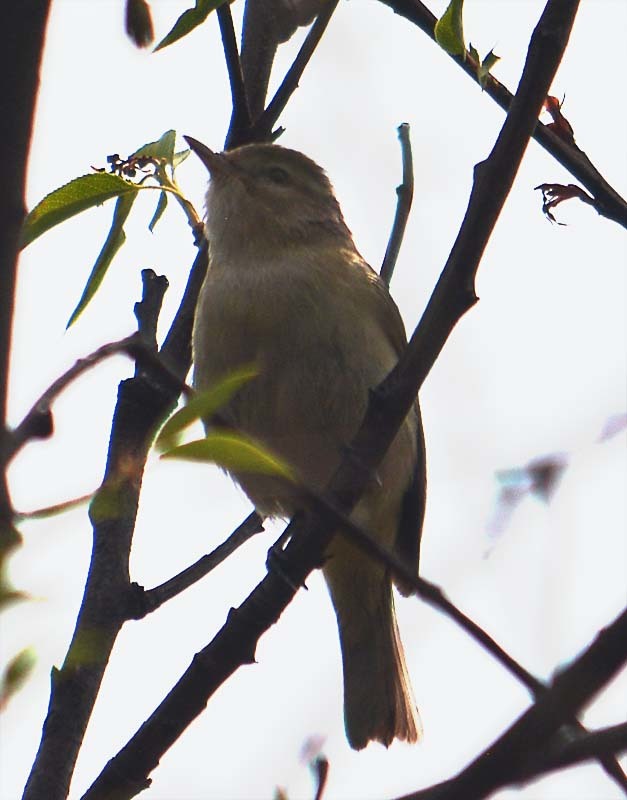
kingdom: Animalia
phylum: Chordata
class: Aves
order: Passeriformes
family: Vireonidae
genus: Vireo
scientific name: Vireo gilvus
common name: Warbling vireo
